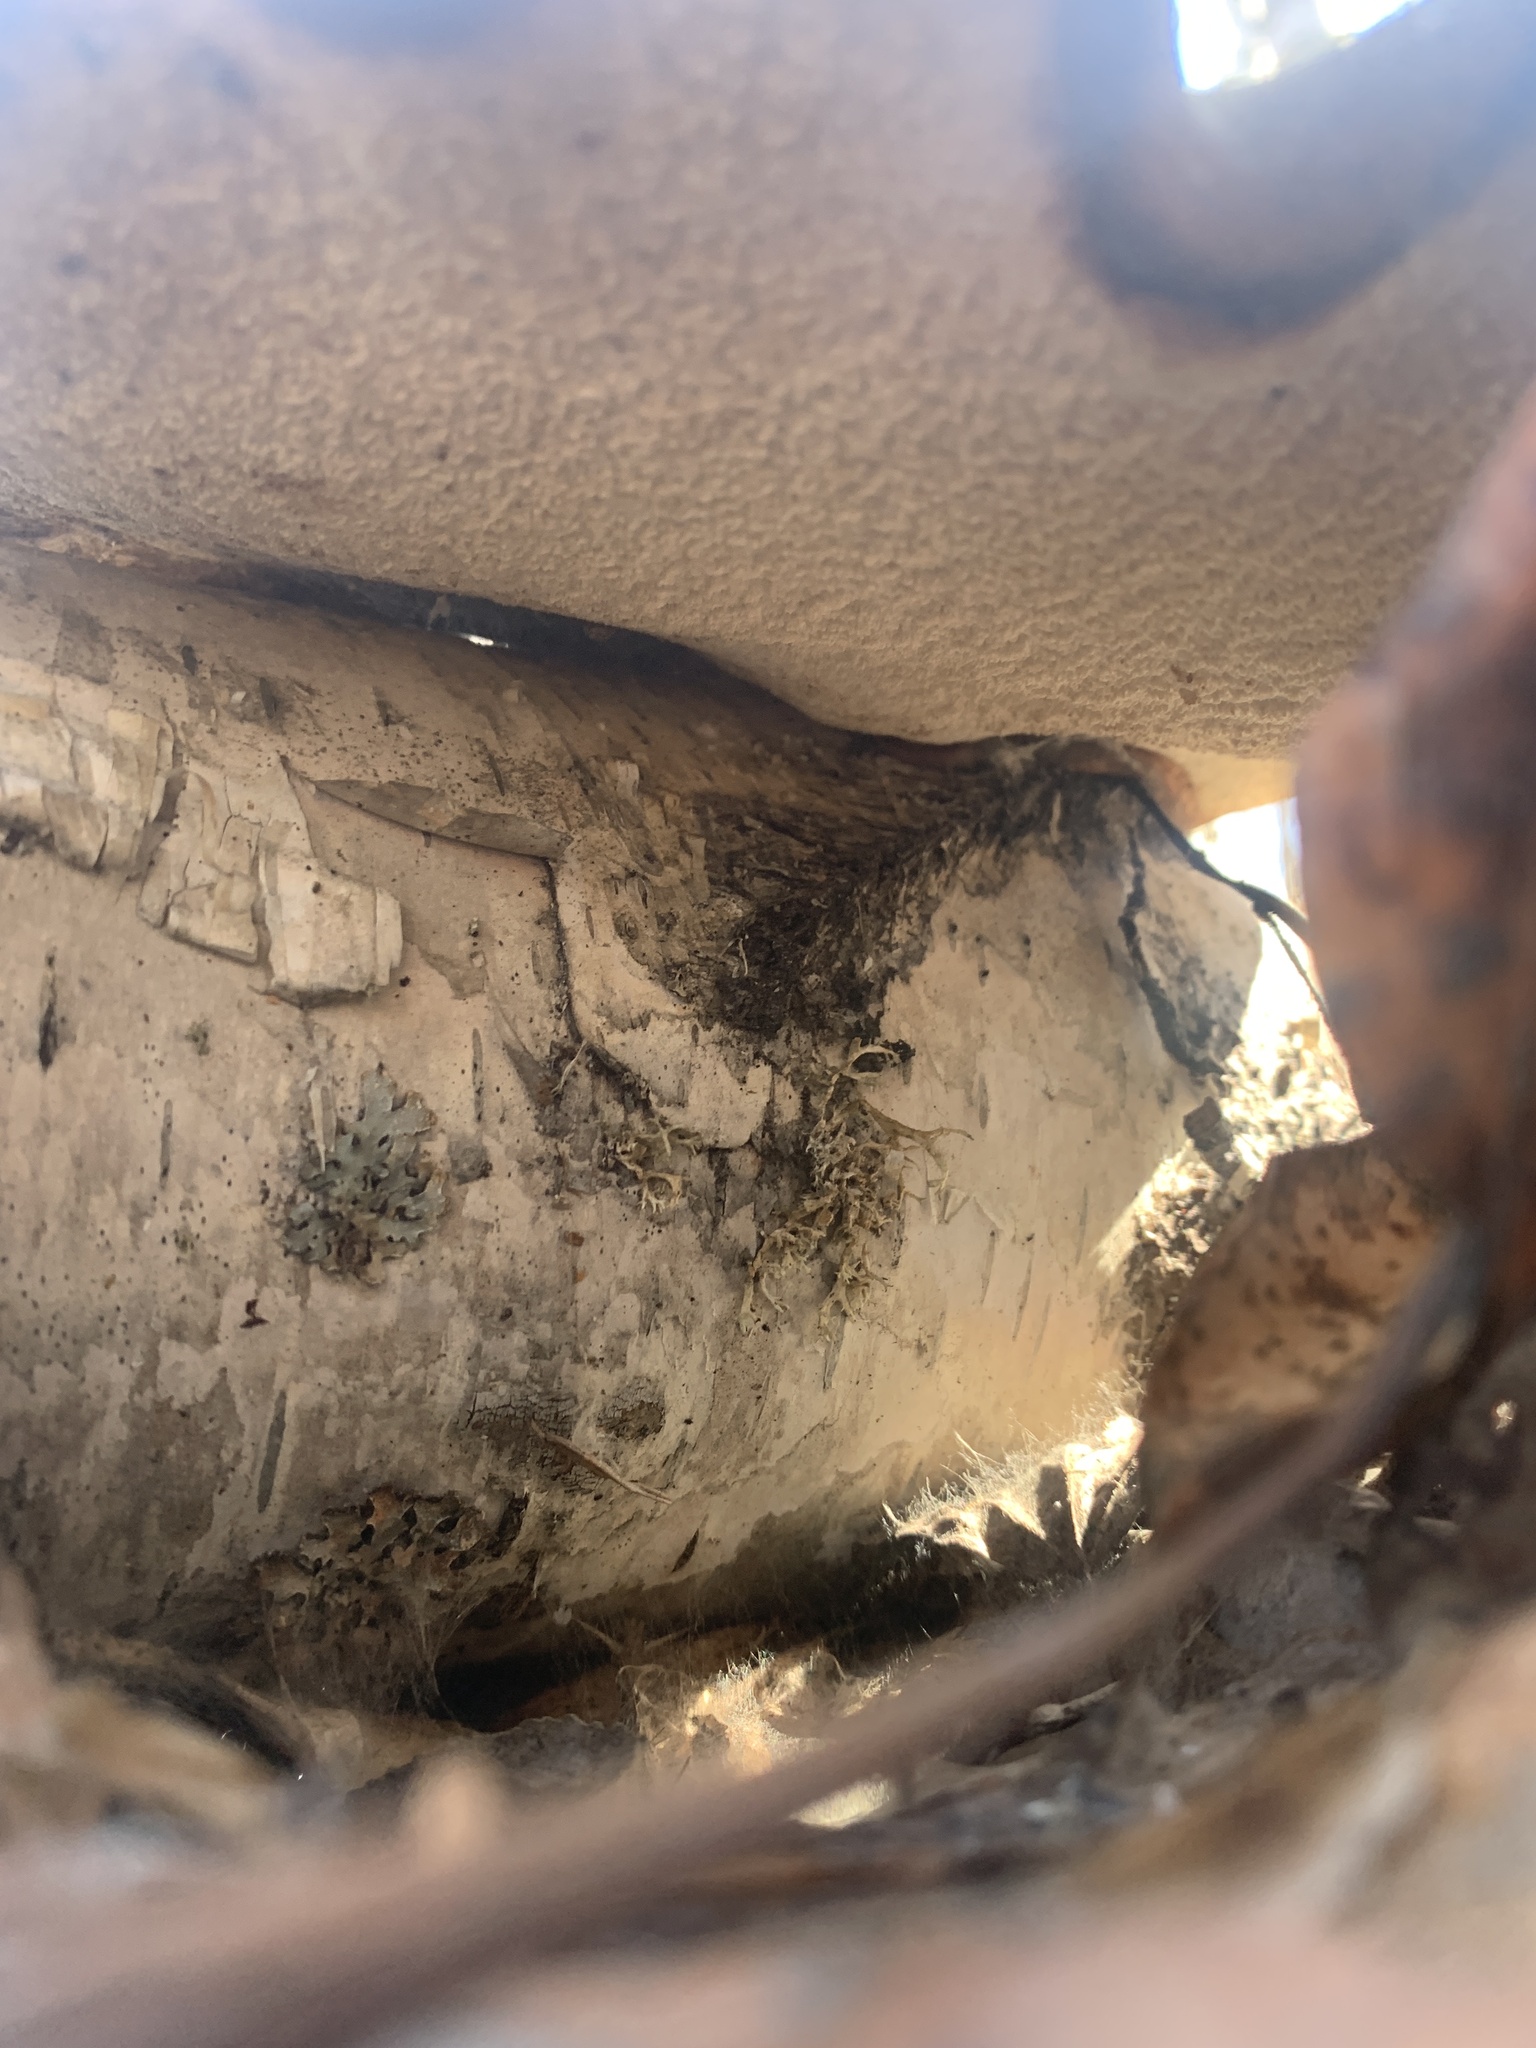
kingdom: Fungi
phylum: Basidiomycota
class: Agaricomycetes
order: Polyporales
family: Fomitopsidaceae
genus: Fomitopsis
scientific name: Fomitopsis betulina
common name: Birch polypore
